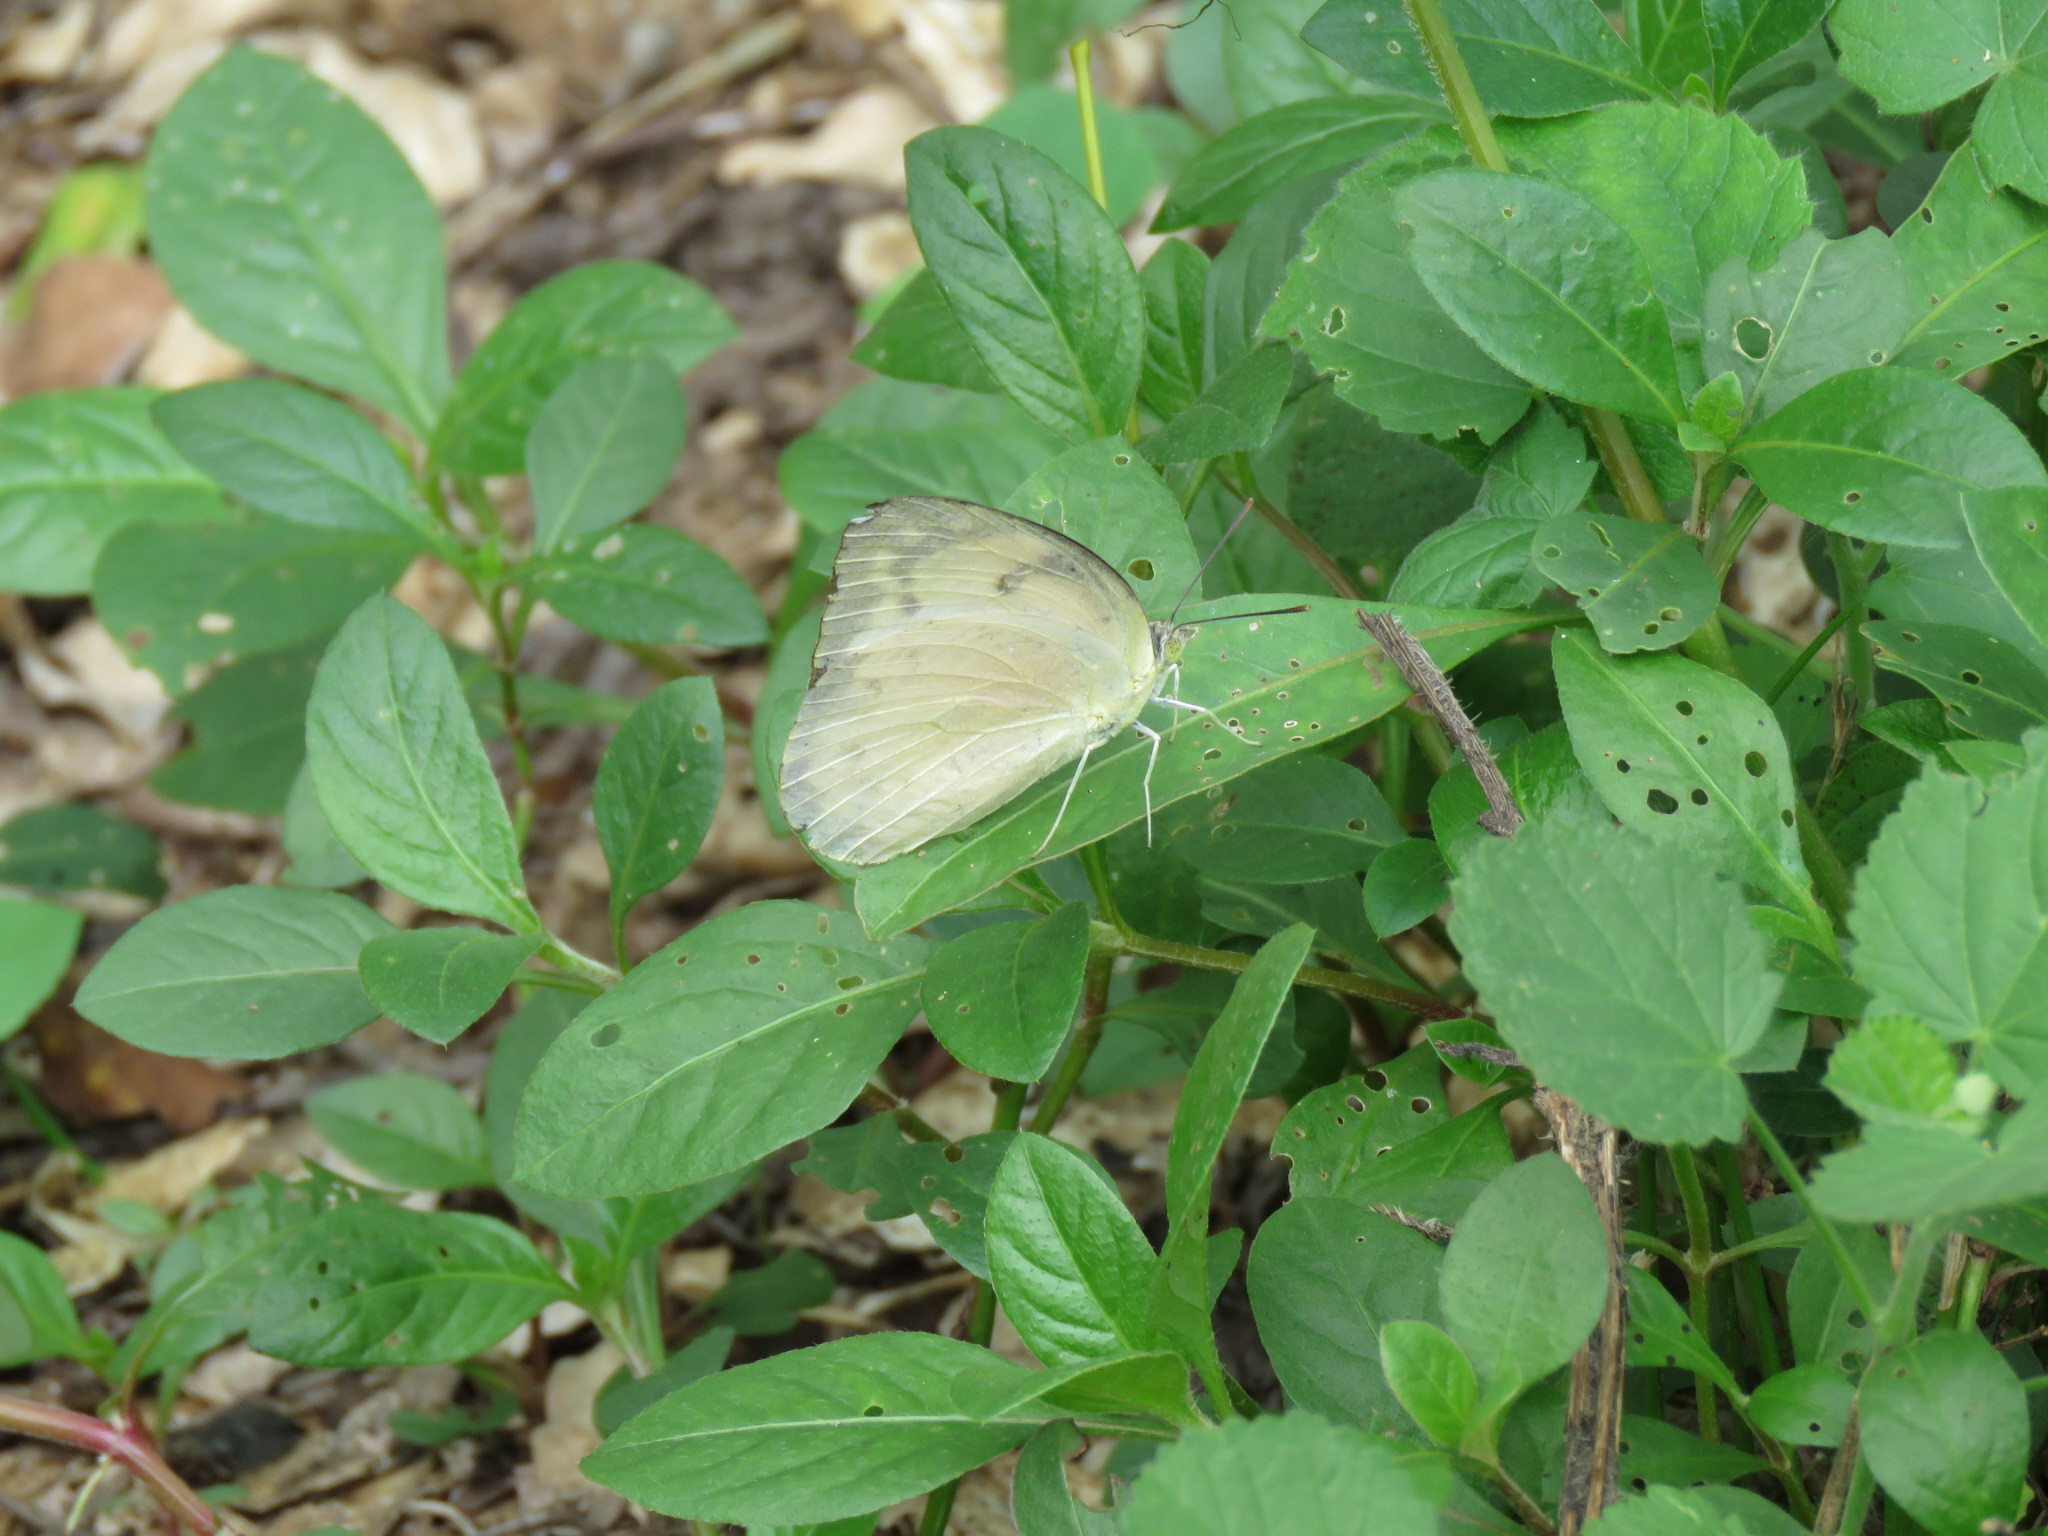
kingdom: Animalia
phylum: Arthropoda
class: Insecta
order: Lepidoptera
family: Pieridae
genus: Catopsilia
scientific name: Catopsilia pomona
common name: Common emigrant
